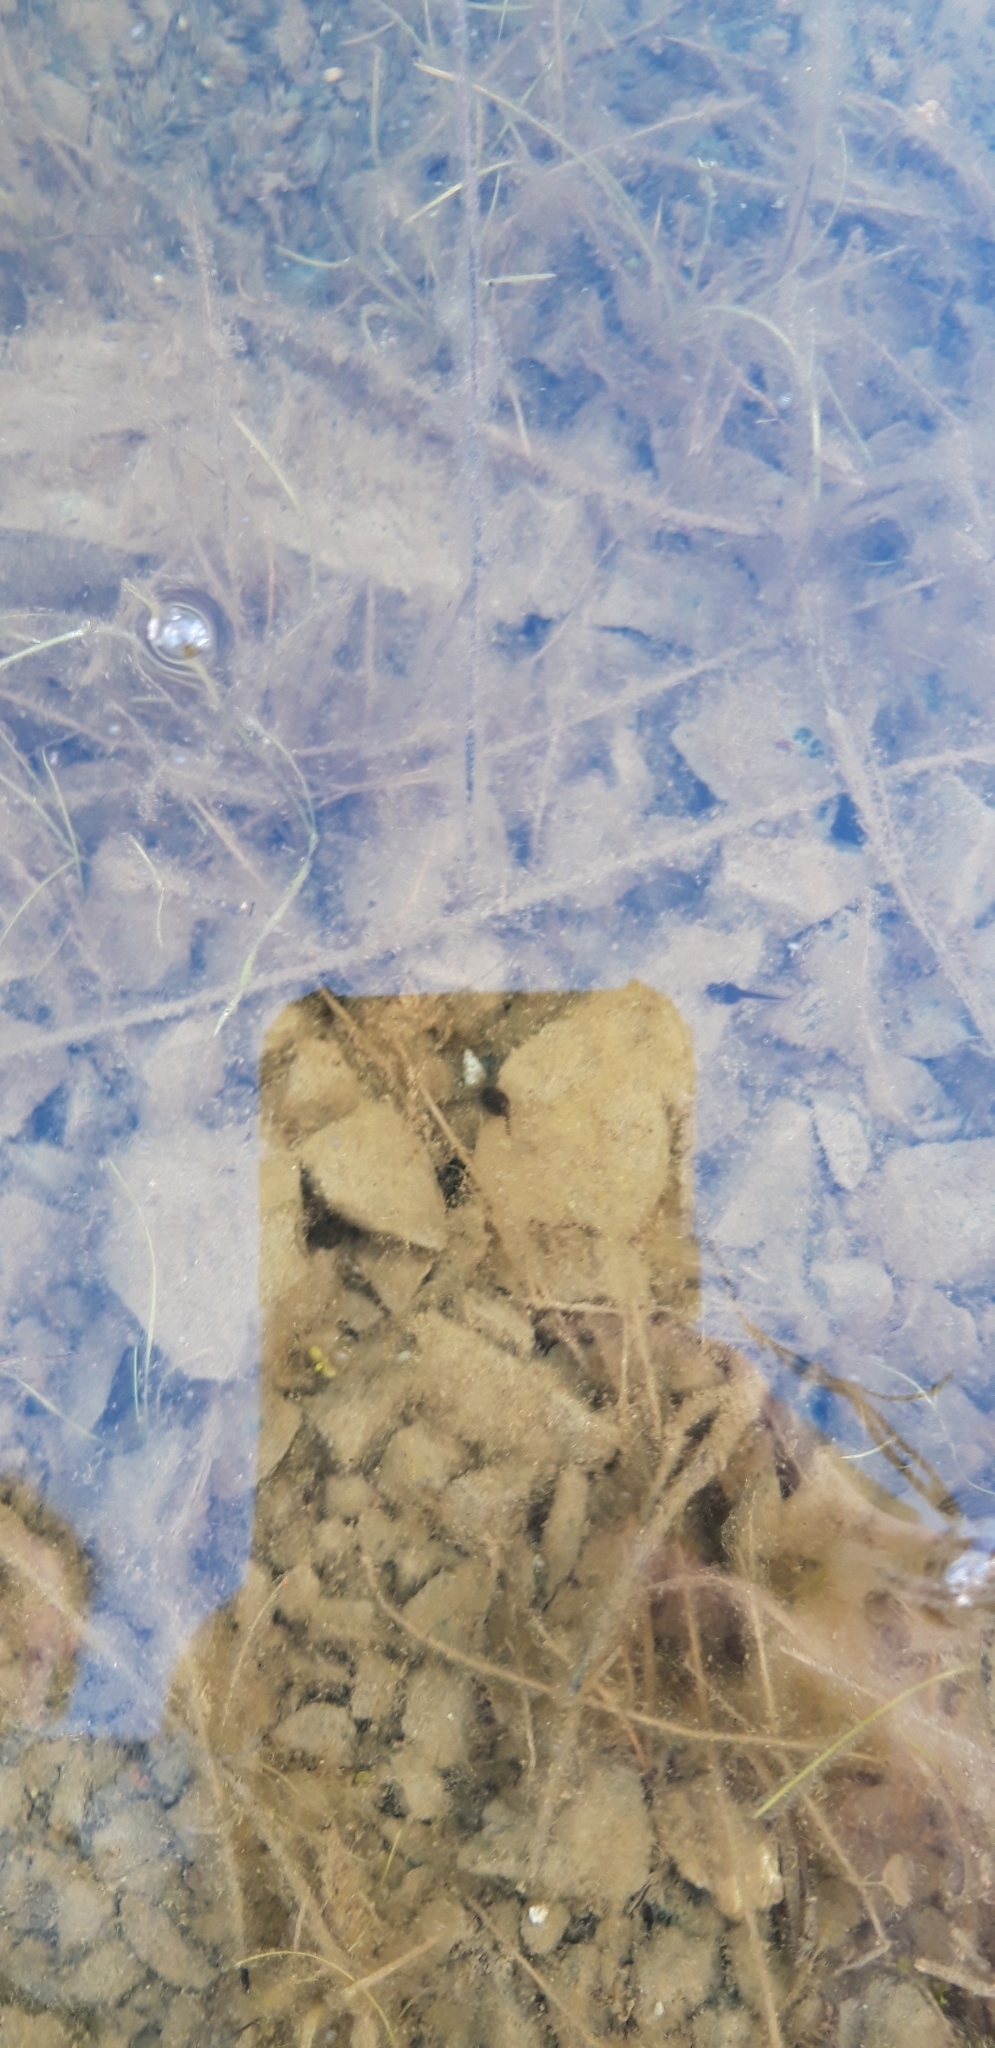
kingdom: Animalia
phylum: Chordata
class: Amphibia
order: Anura
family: Bufonidae
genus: Bufotes
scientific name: Bufotes cypriensis
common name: Cyprus green toad
